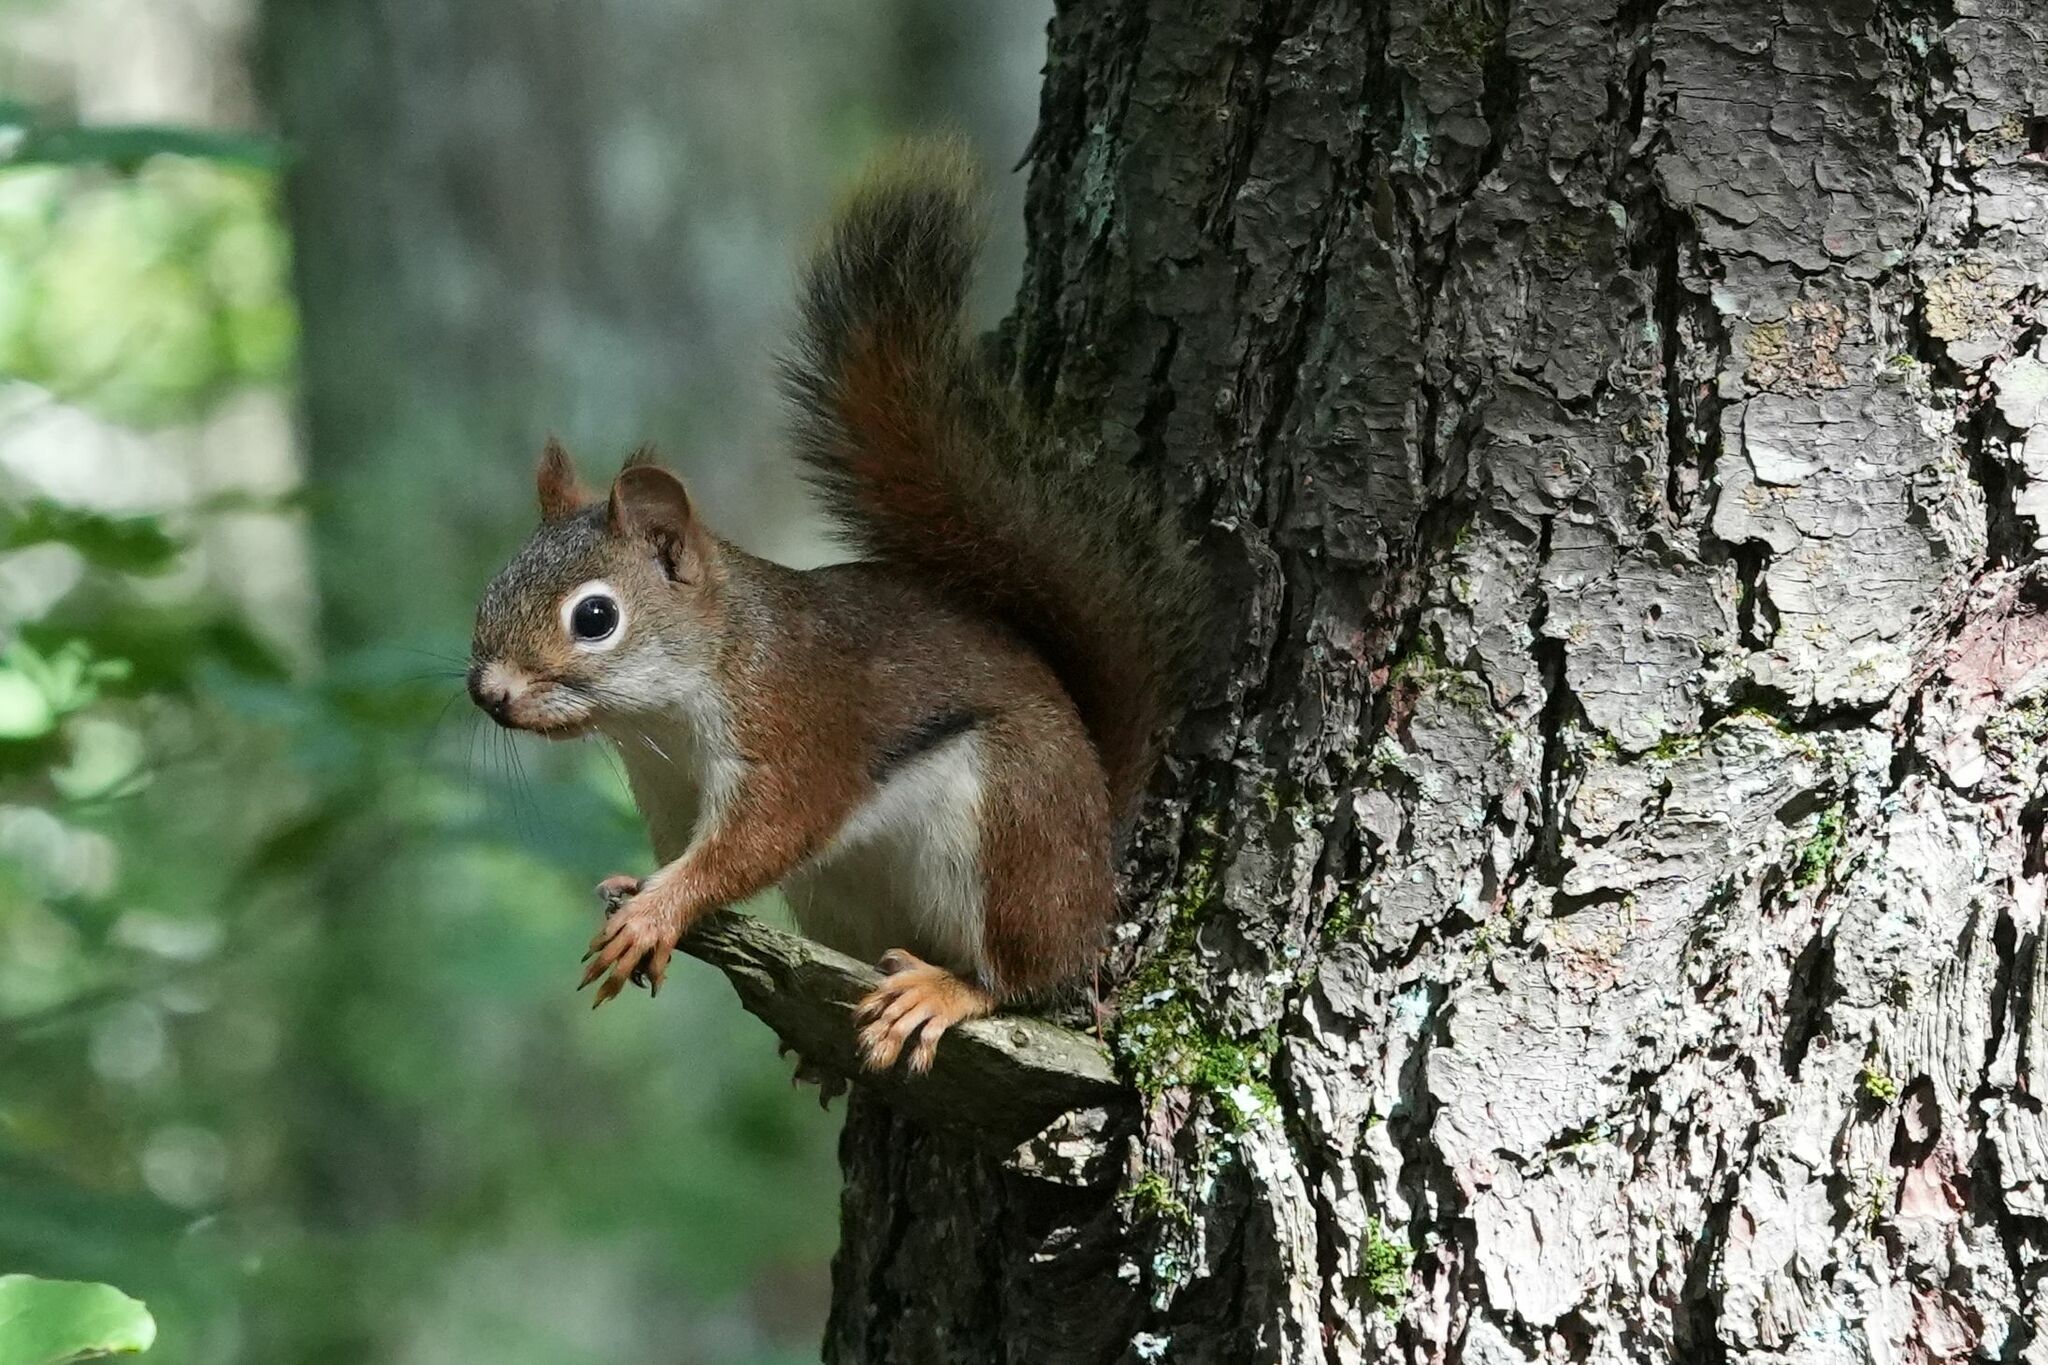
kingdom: Animalia
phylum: Chordata
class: Mammalia
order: Rodentia
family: Sciuridae
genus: Tamiasciurus
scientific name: Tamiasciurus hudsonicus
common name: Red squirrel
